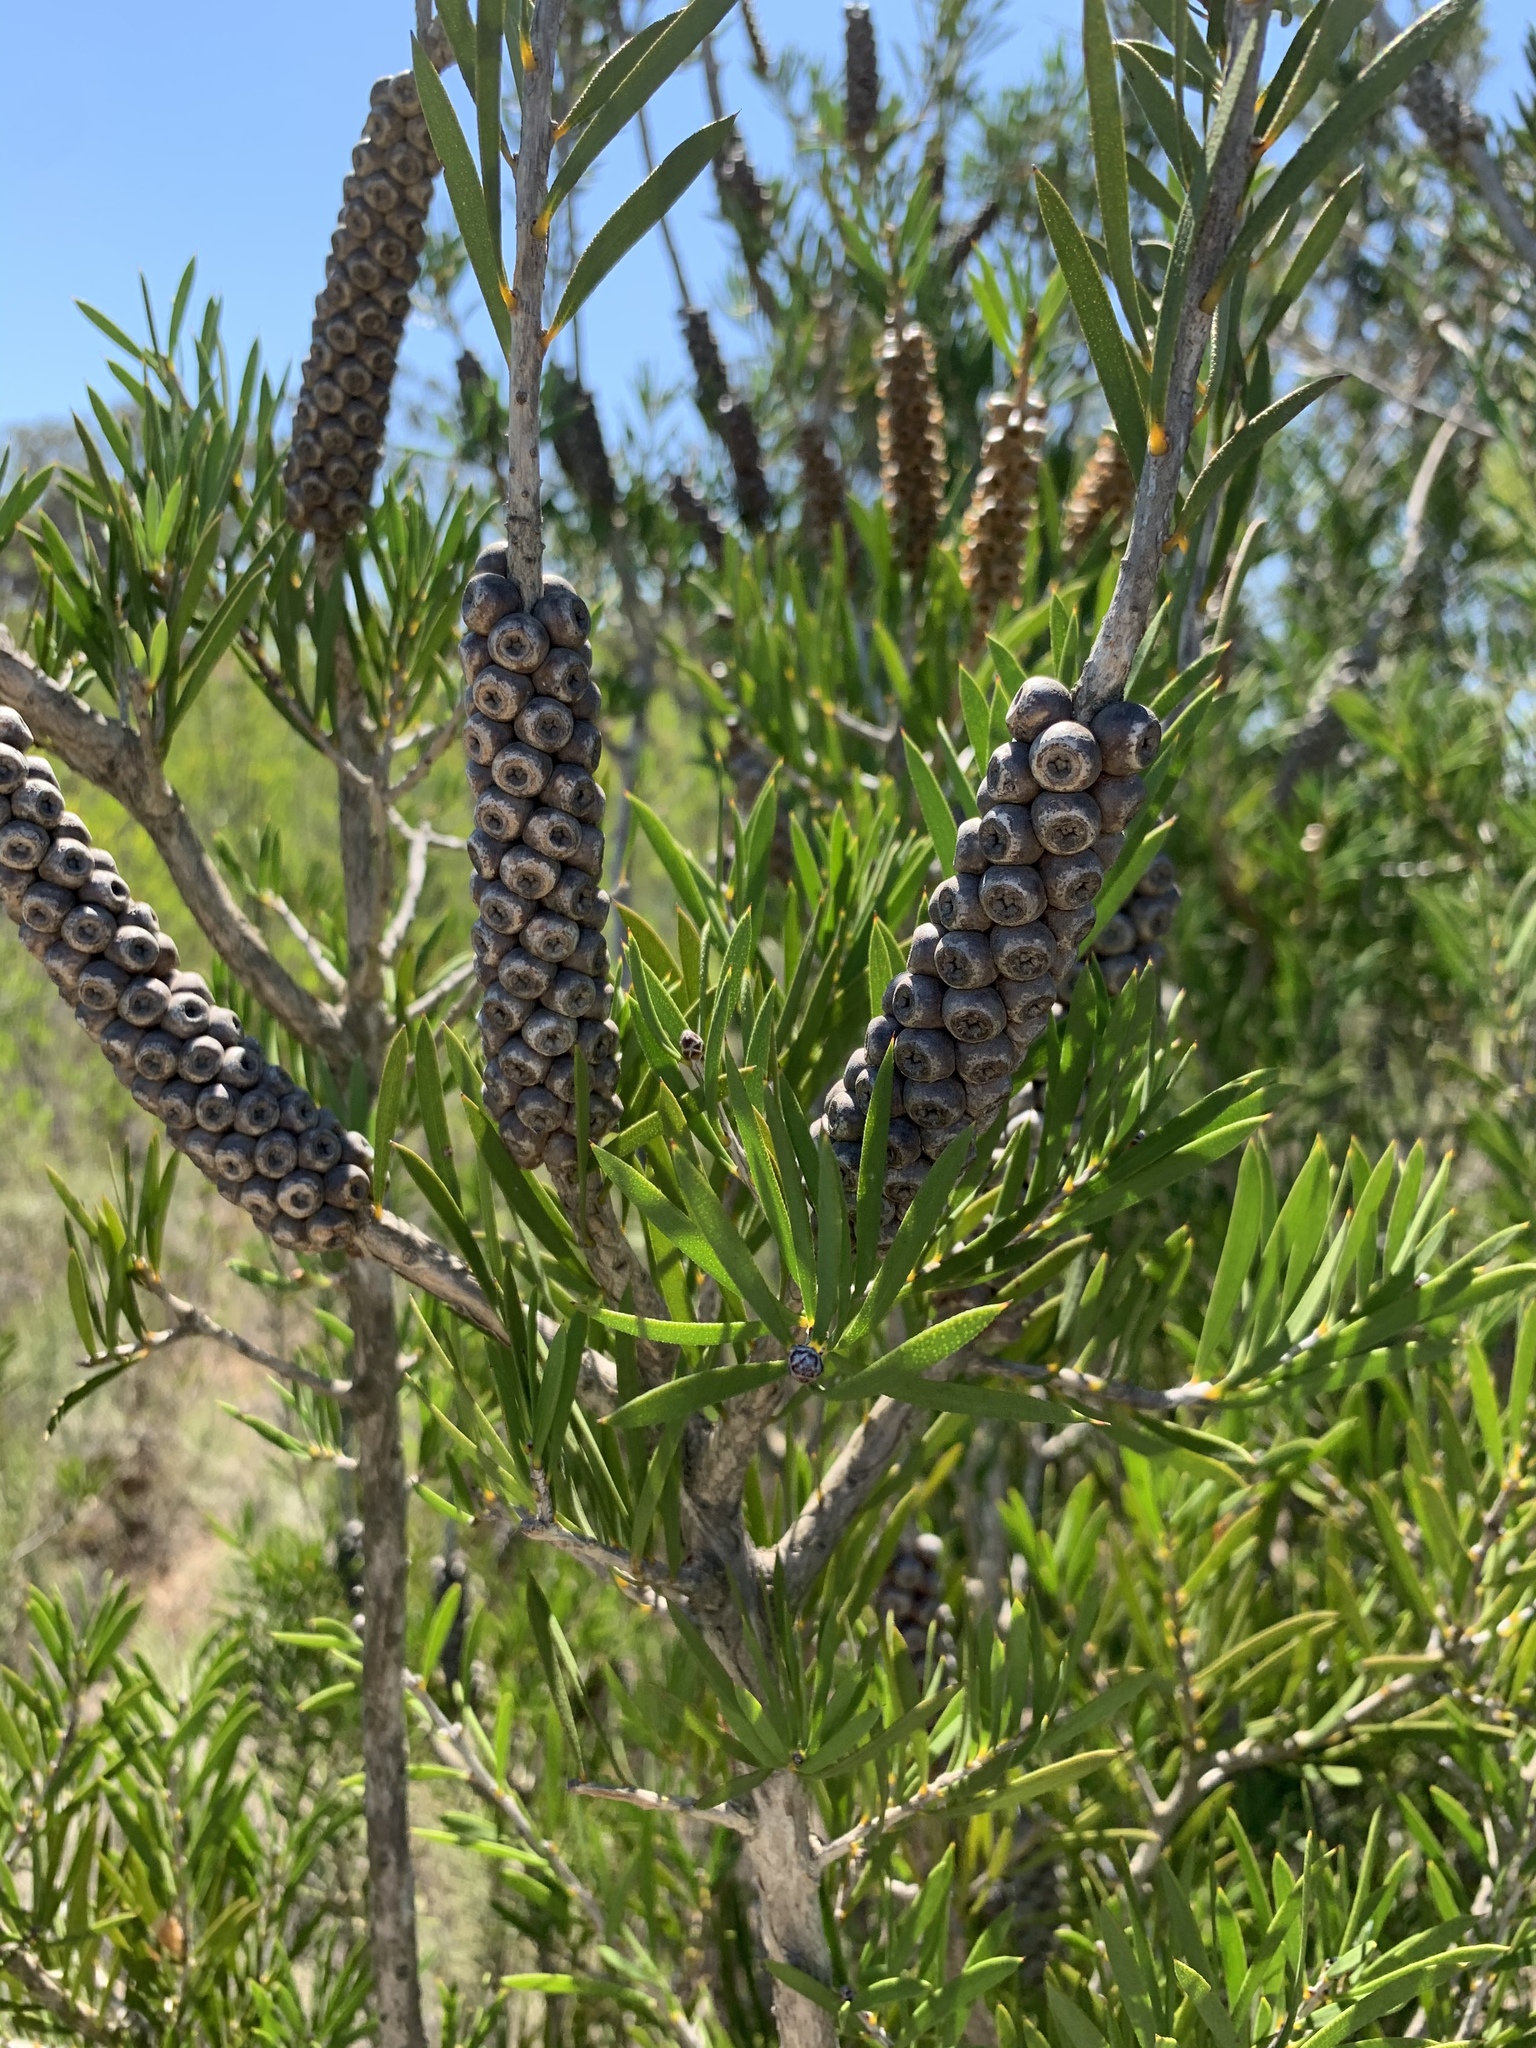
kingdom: Plantae
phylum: Tracheophyta
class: Magnoliopsida
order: Myrtales
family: Myrtaceae
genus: Callistemon
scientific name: Callistemon rugulosus
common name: Scarlet bottlebrush
